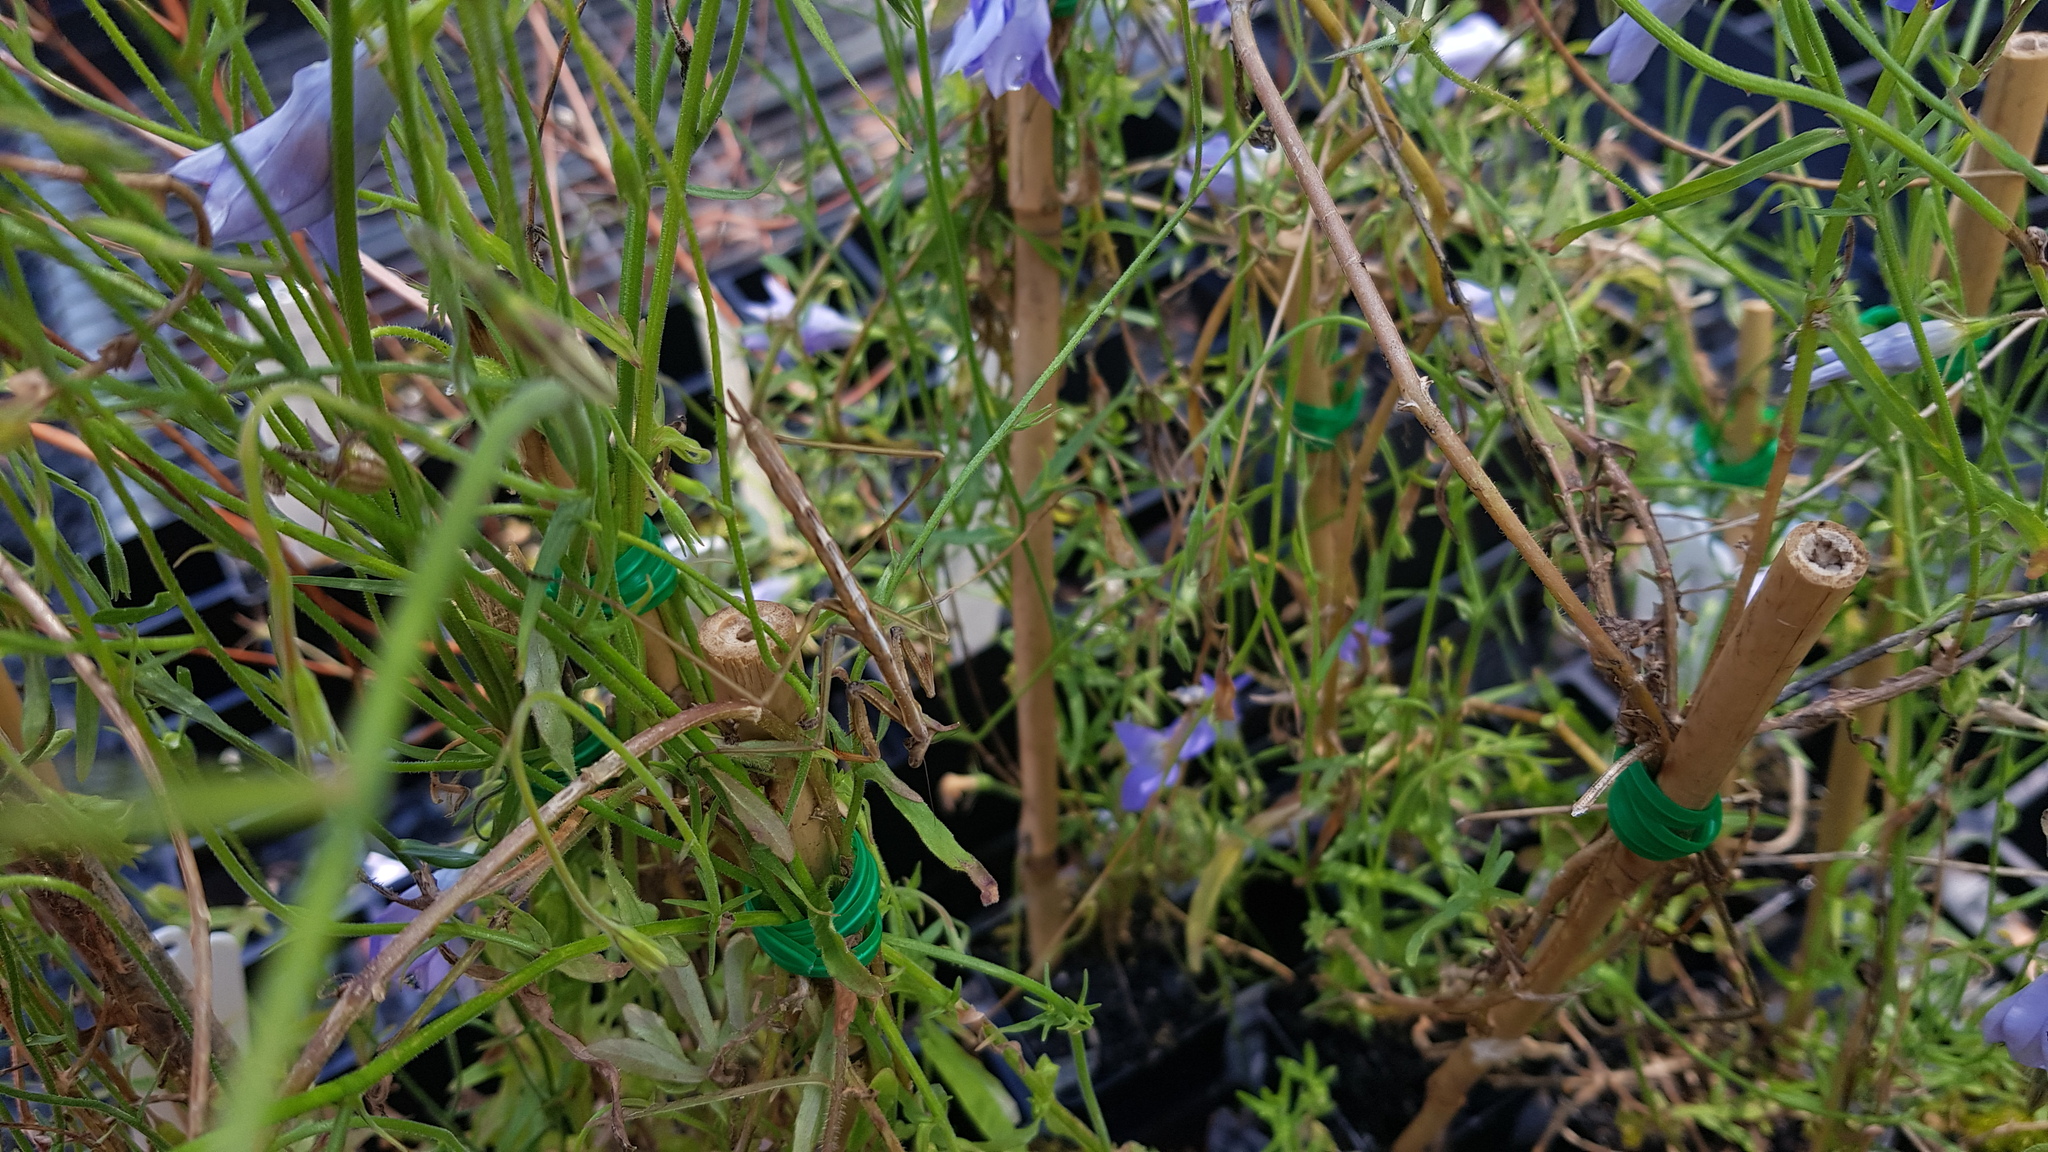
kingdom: Animalia
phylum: Arthropoda
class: Insecta
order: Mantodea
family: Mantidae
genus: Archimantis
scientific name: Archimantis latistyla
